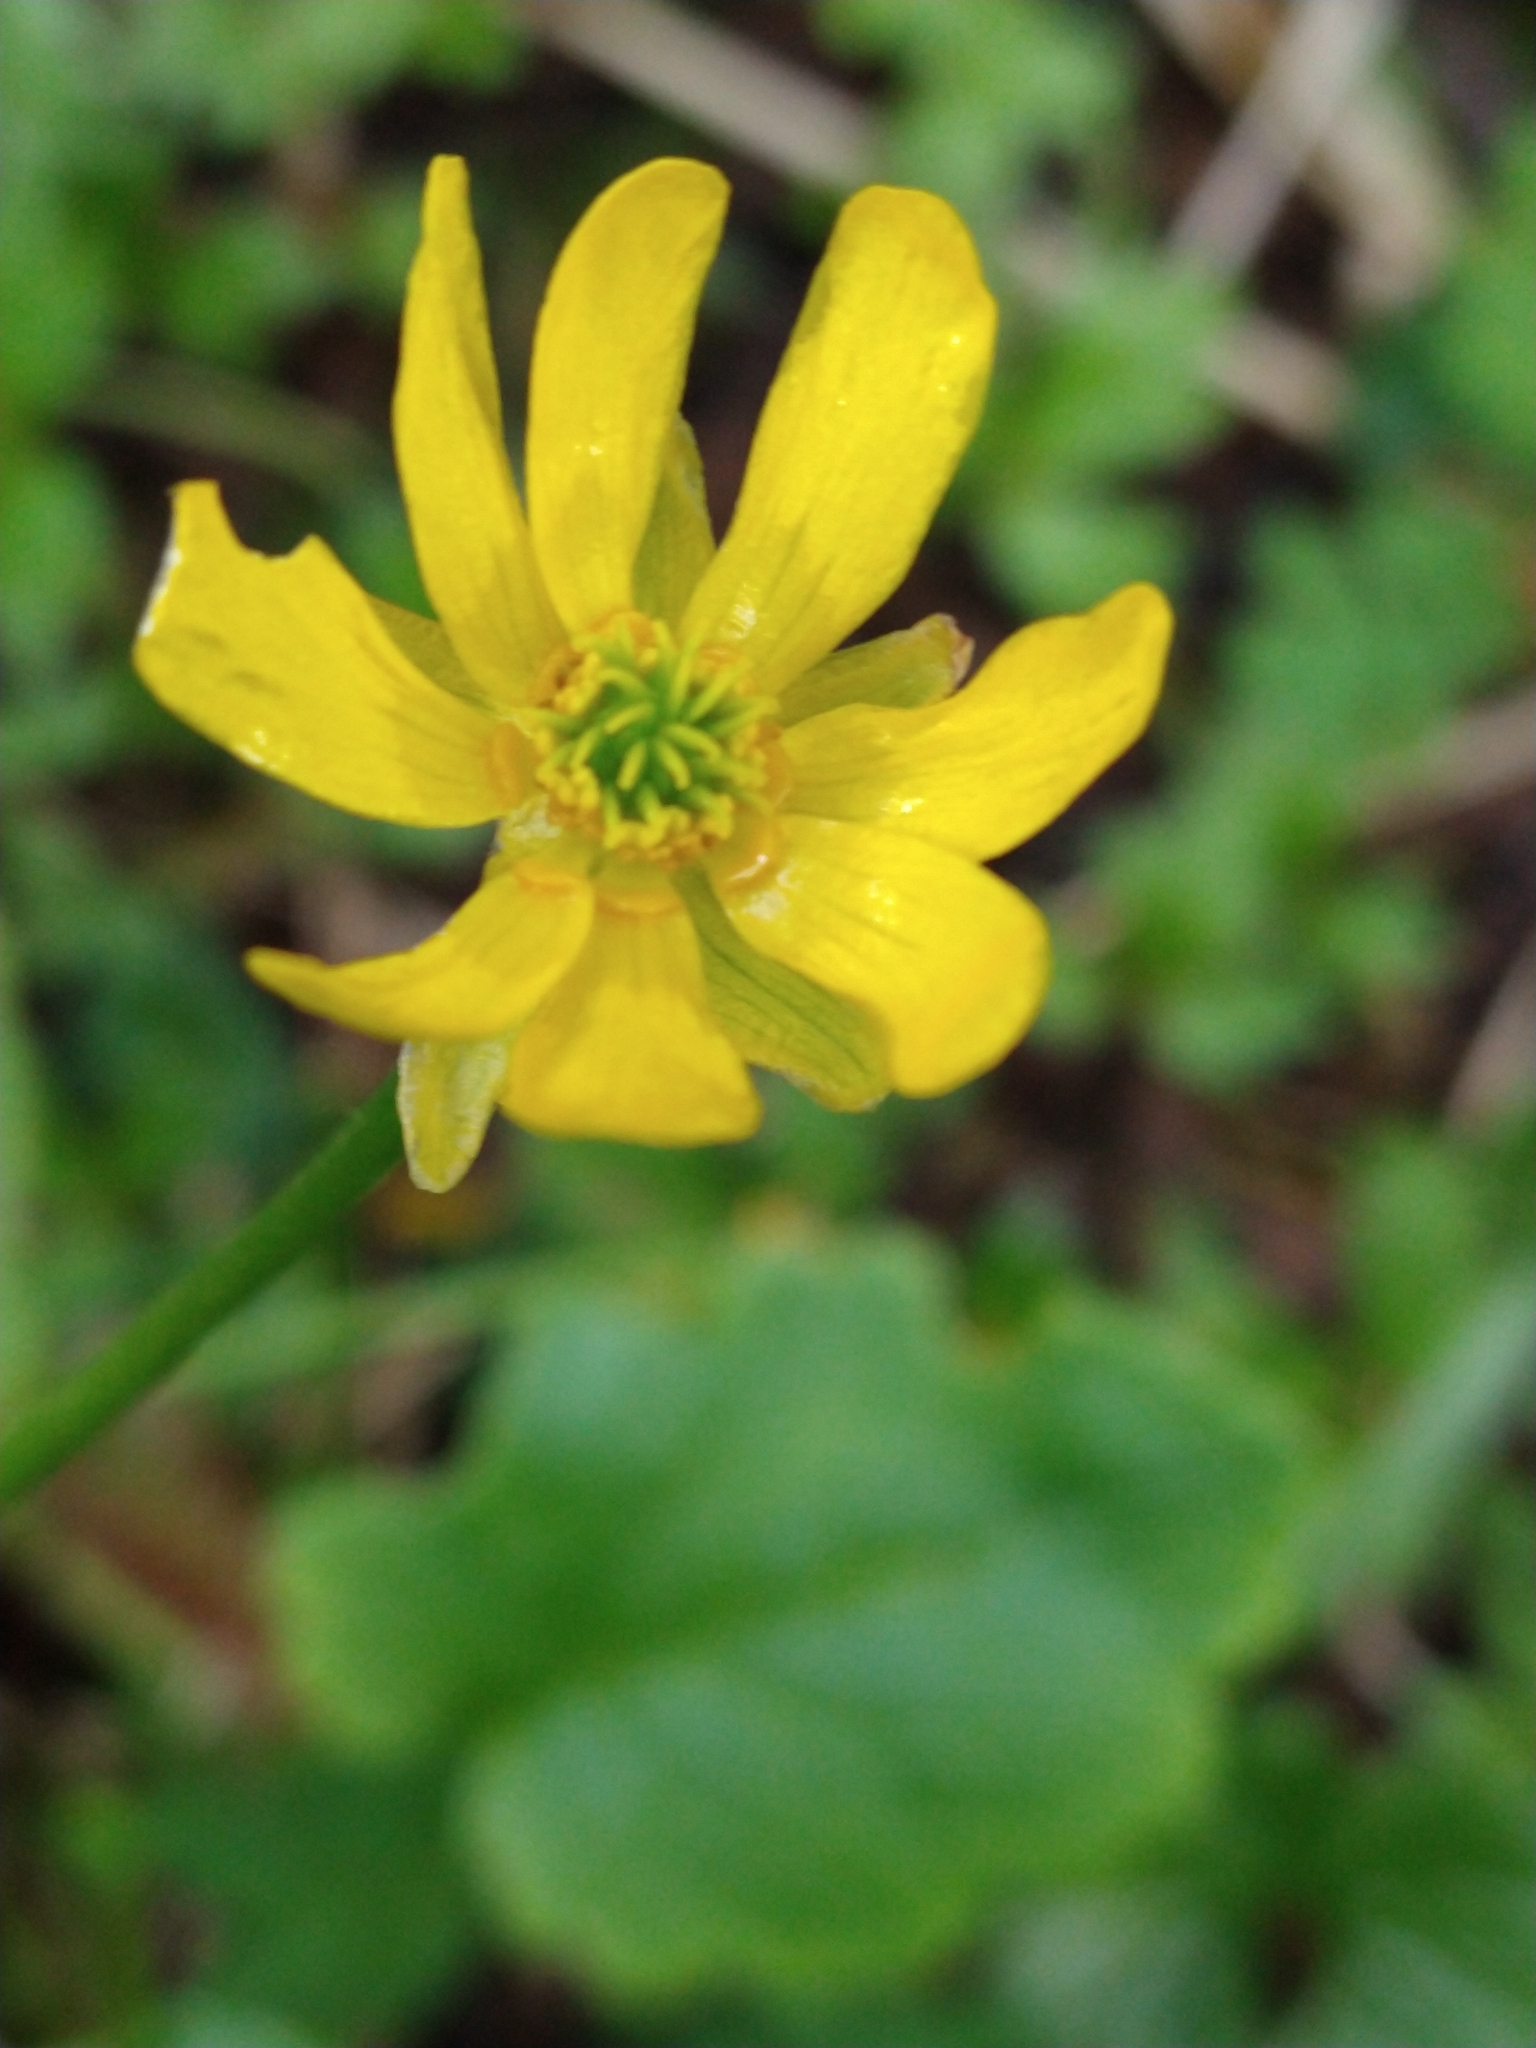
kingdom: Plantae
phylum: Tracheophyta
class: Magnoliopsida
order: Ranunculales
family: Ranunculaceae
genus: Ranunculus
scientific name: Ranunculus peduncularis
